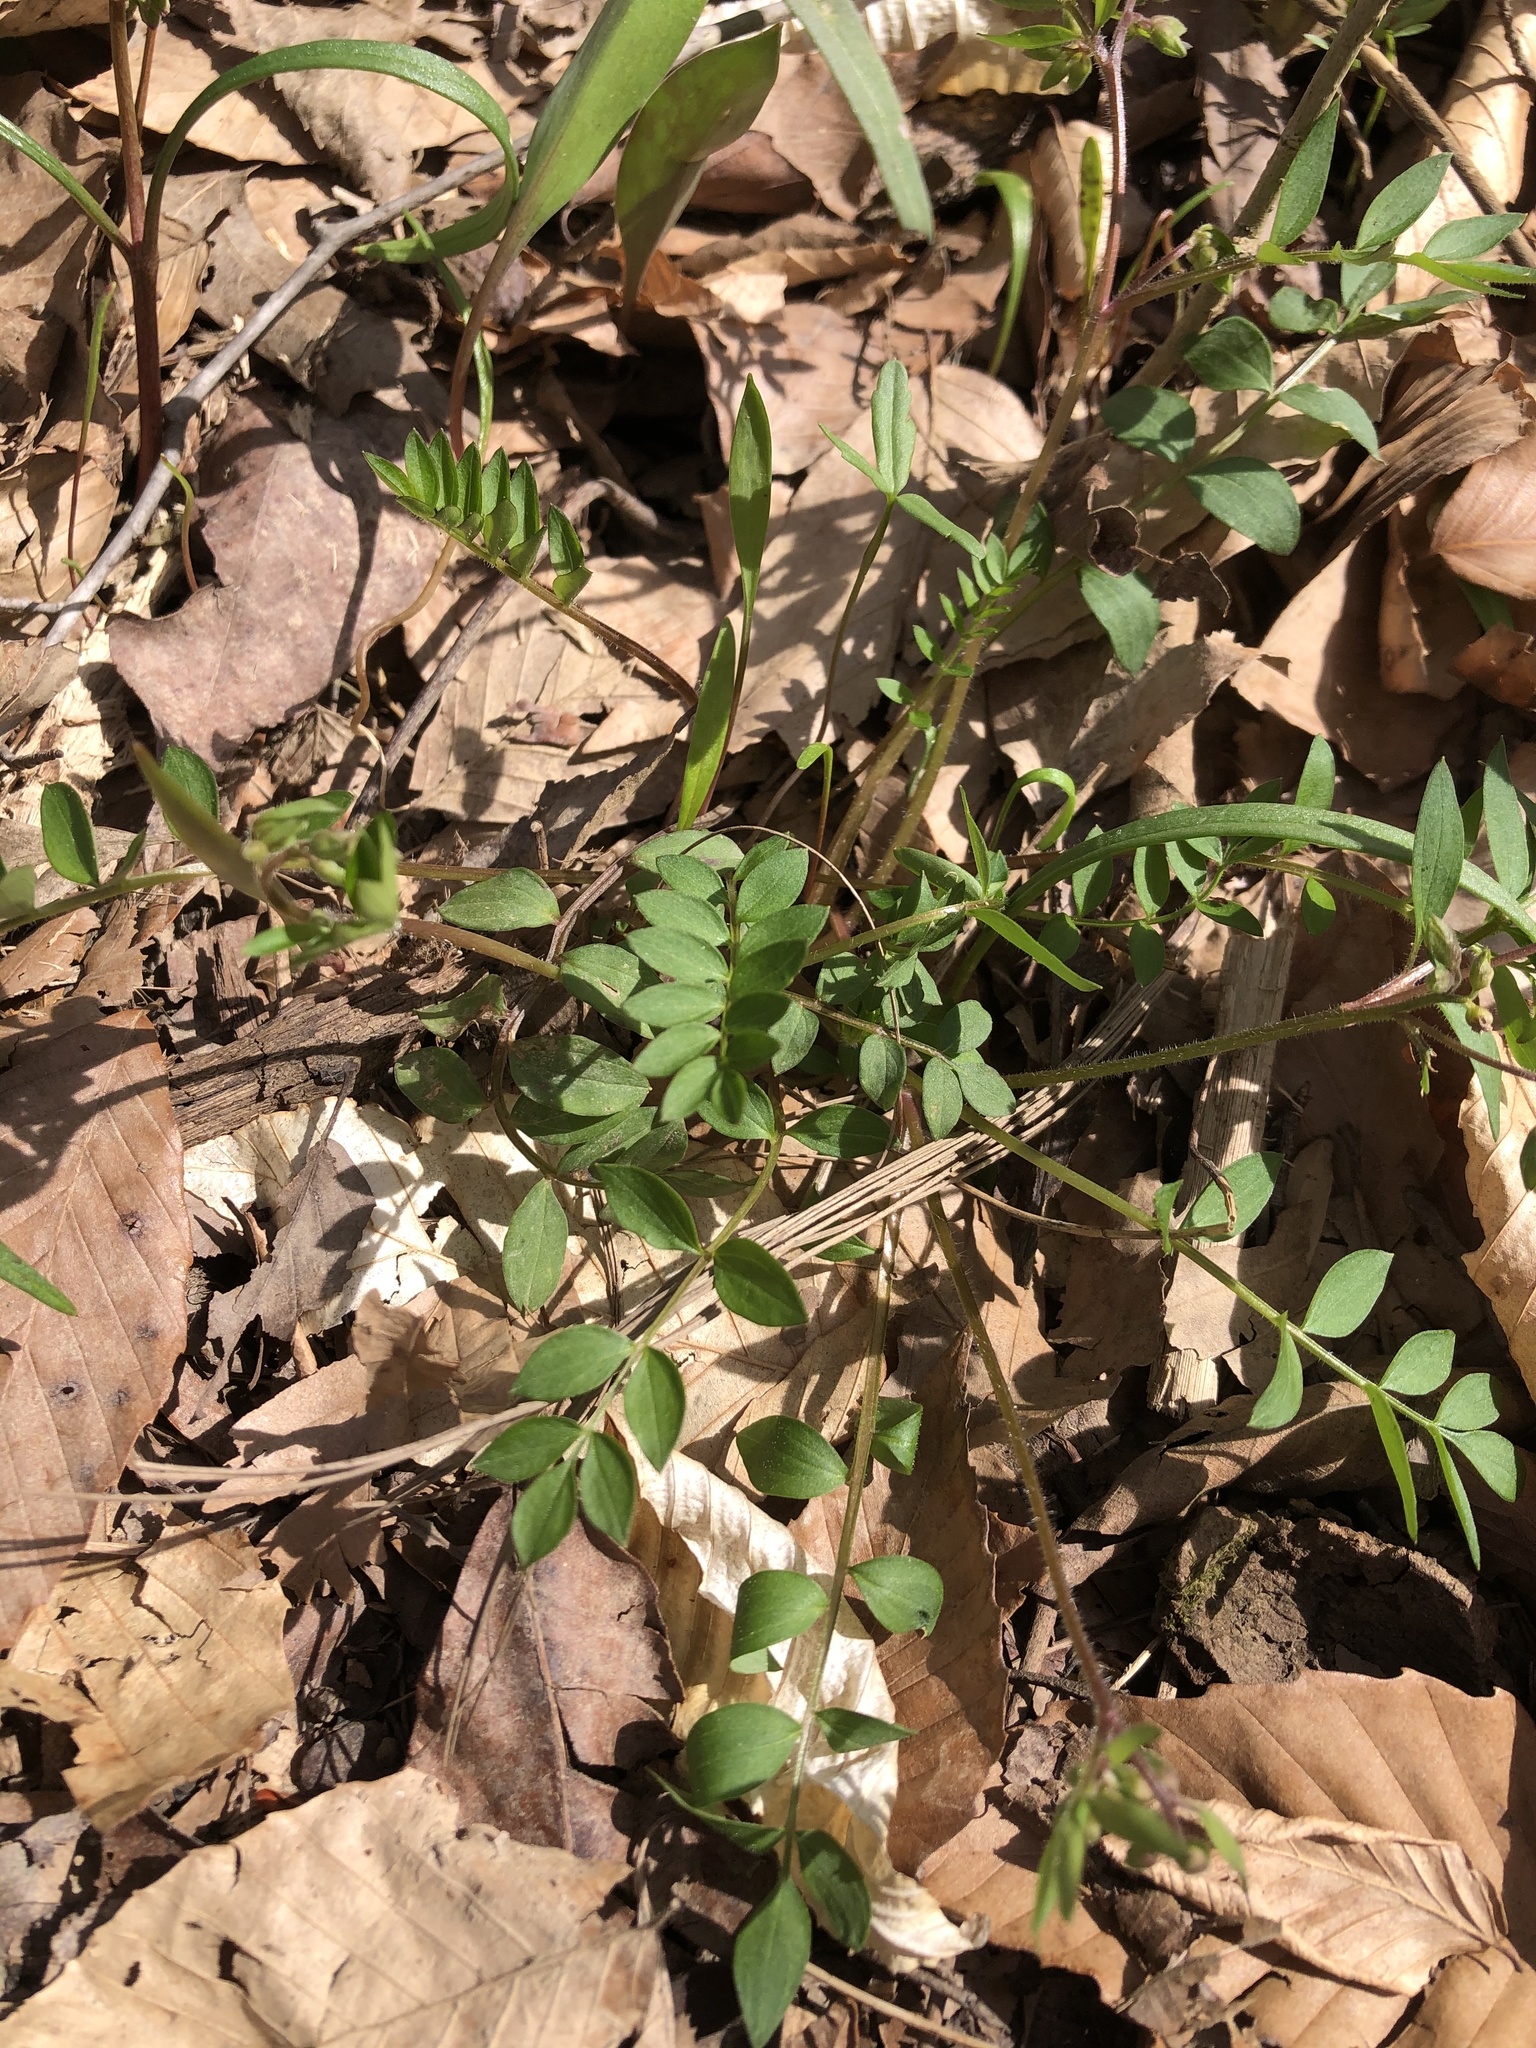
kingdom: Plantae
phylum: Tracheophyta
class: Magnoliopsida
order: Ericales
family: Polemoniaceae
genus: Polemonium
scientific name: Polemonium reptans
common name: Creeping jacob's-ladder
